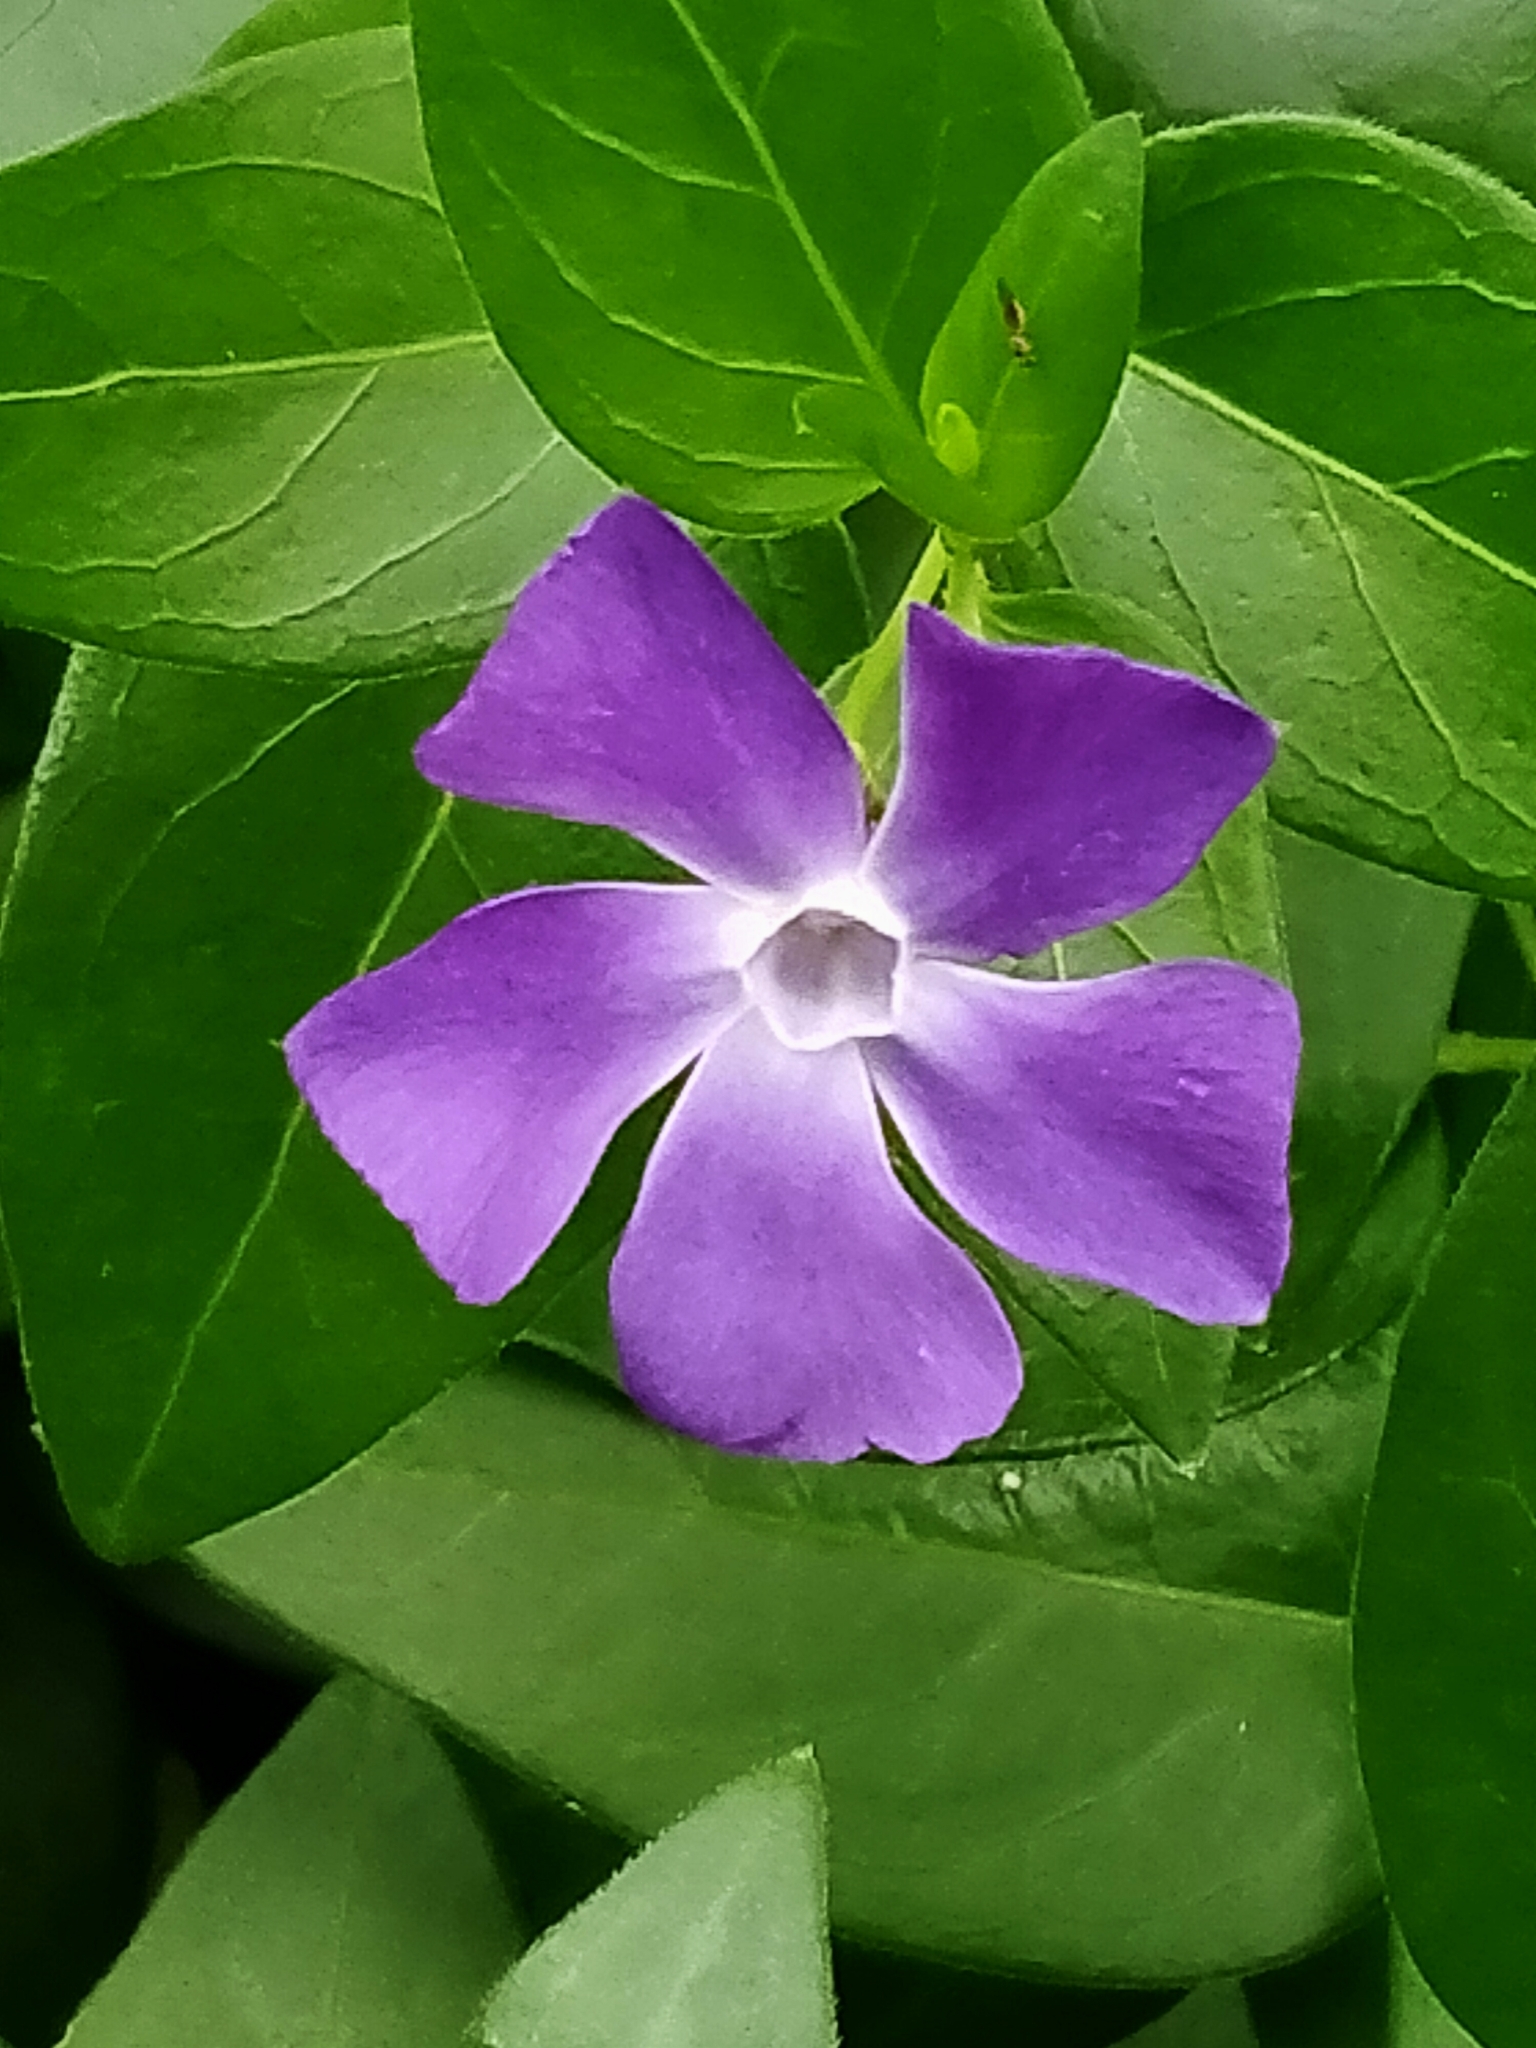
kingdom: Plantae
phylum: Tracheophyta
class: Magnoliopsida
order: Gentianales
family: Apocynaceae
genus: Vinca
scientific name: Vinca major
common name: Greater periwinkle
